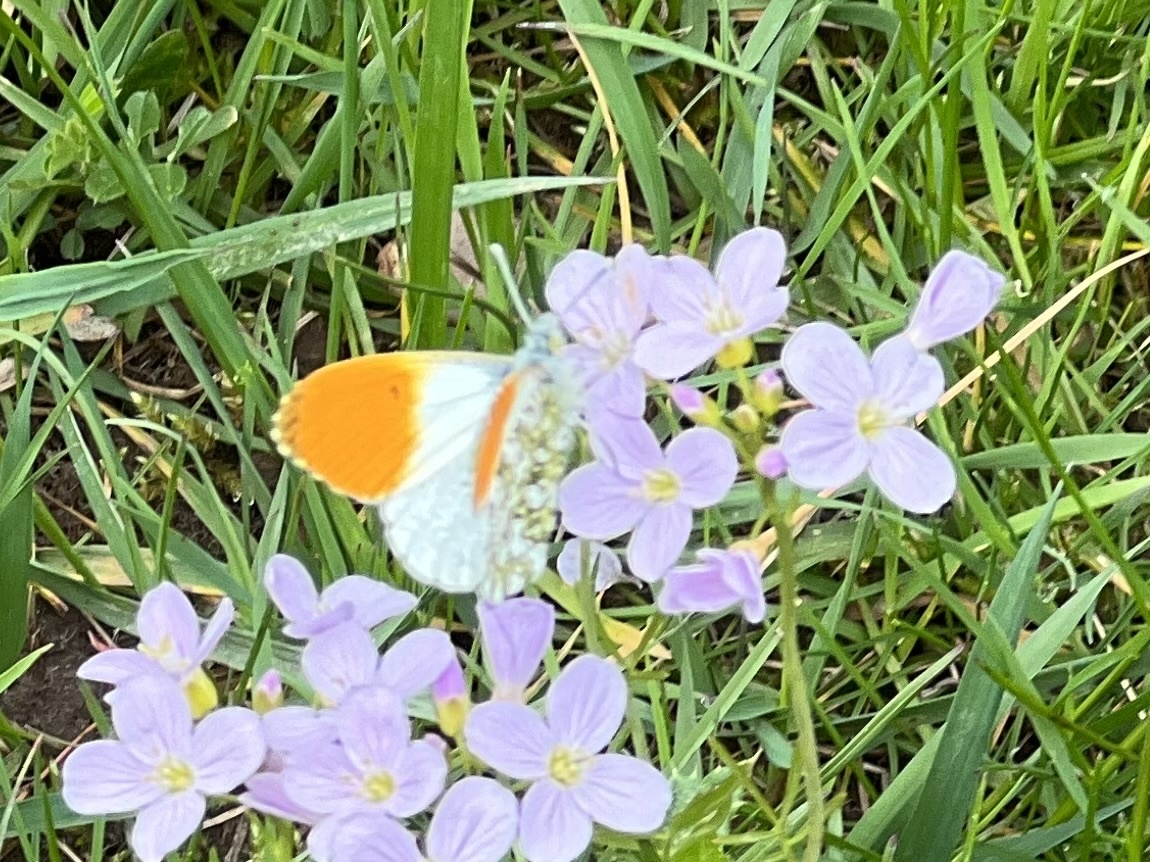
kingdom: Animalia
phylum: Arthropoda
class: Insecta
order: Lepidoptera
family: Pieridae
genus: Anthocharis
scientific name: Anthocharis cardamines
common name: Orange-tip
